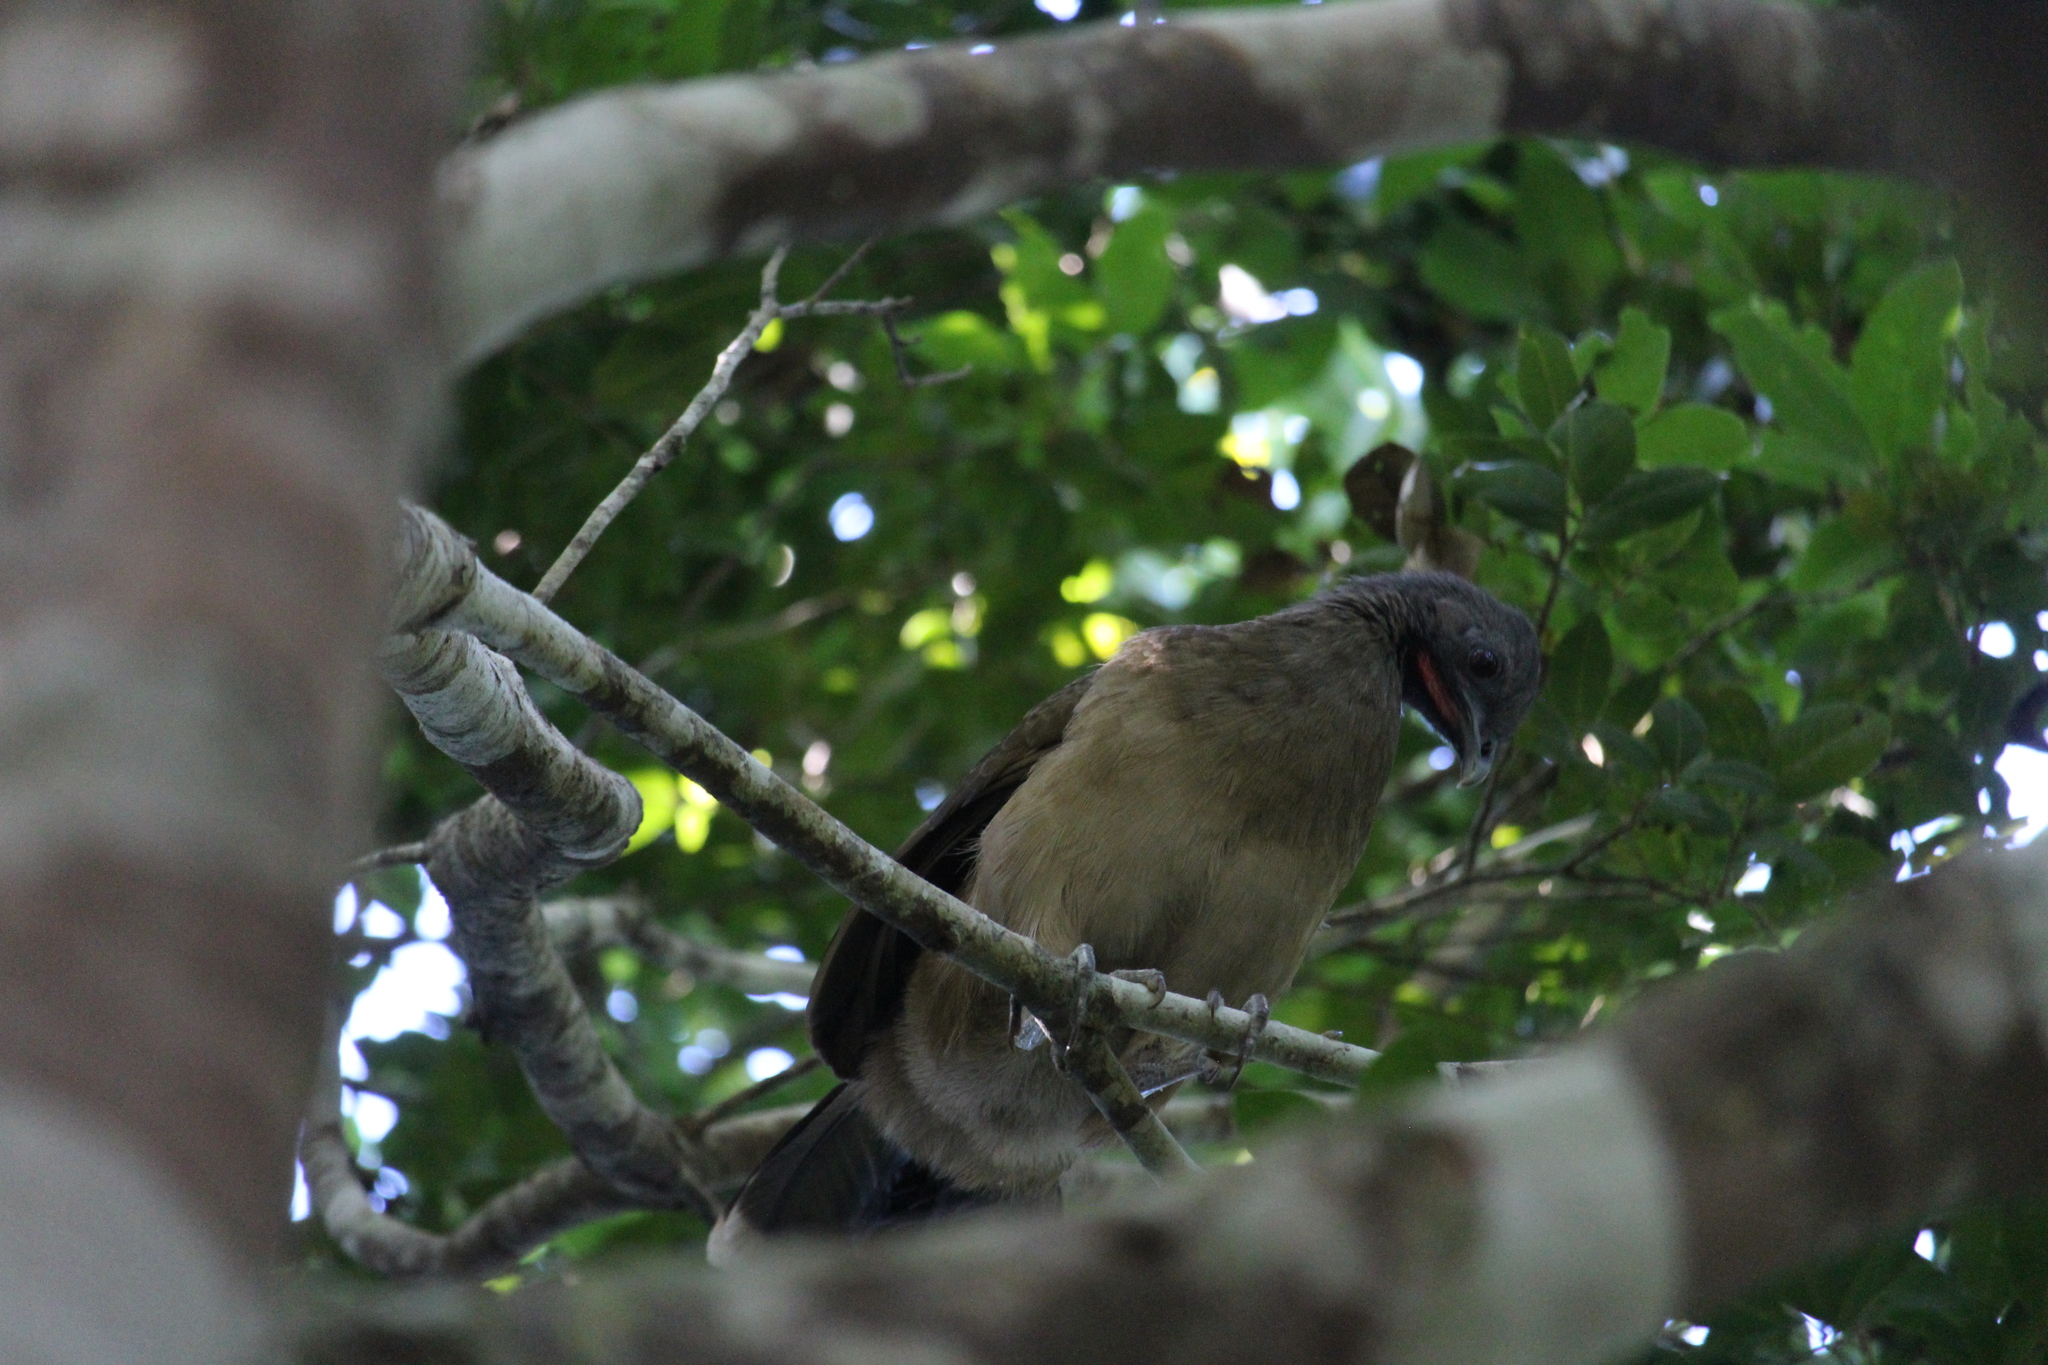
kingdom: Animalia
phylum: Chordata
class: Aves
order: Galliformes
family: Cracidae
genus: Ortalis
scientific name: Ortalis vetula
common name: Plain chachalaca
